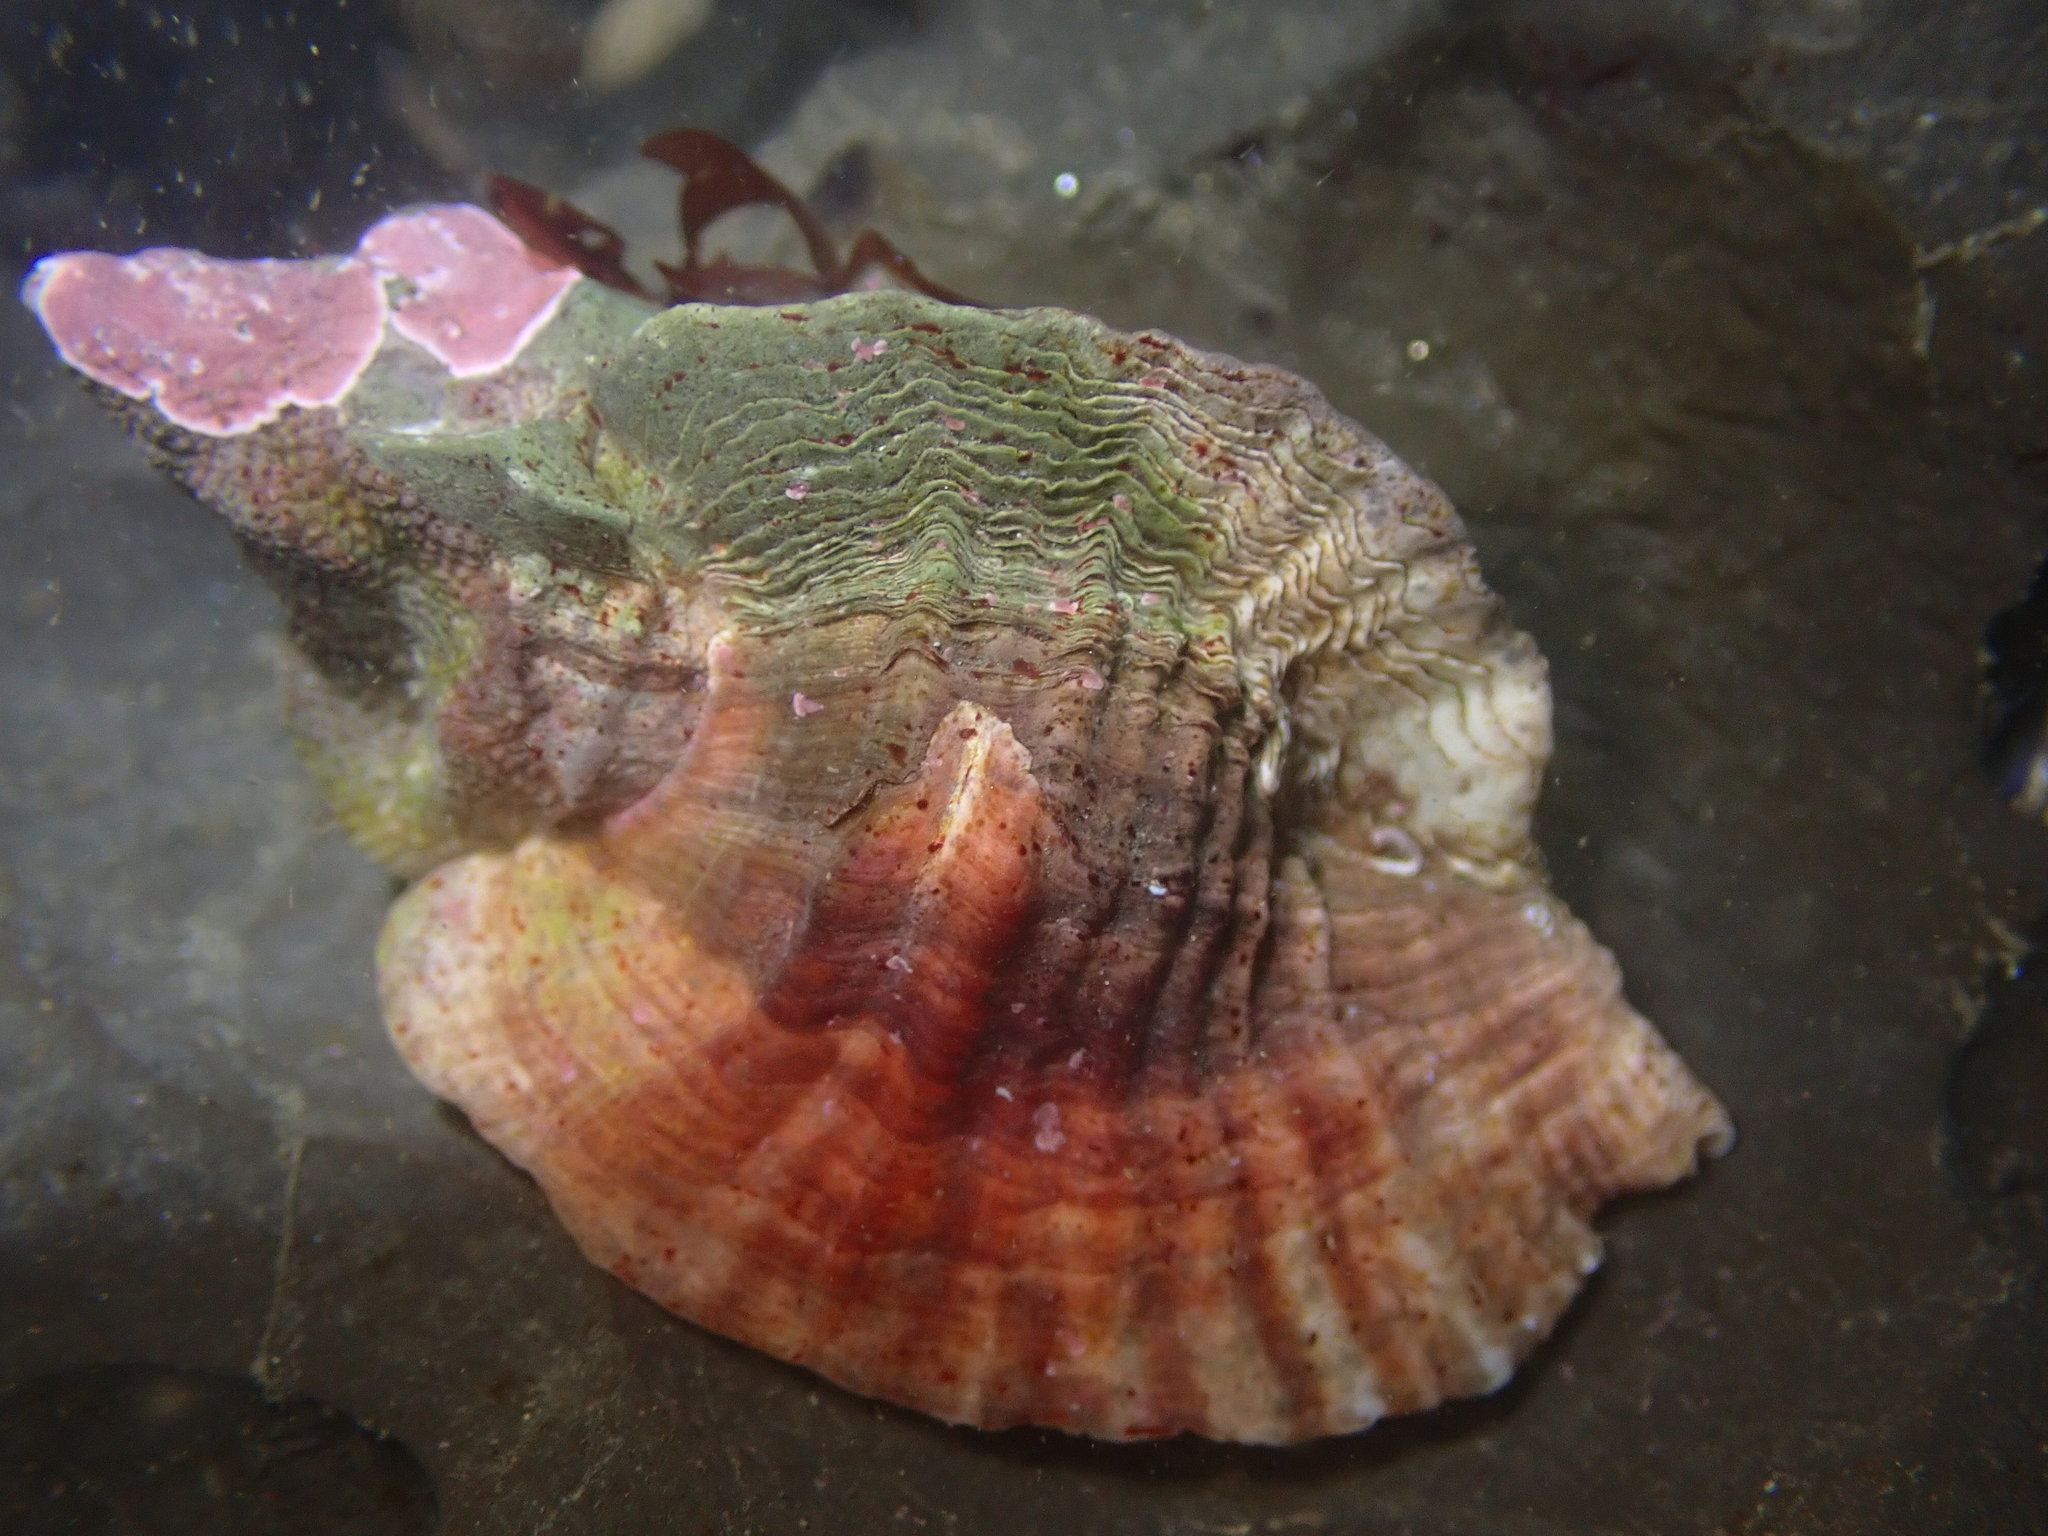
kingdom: Animalia
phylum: Mollusca
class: Gastropoda
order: Neogastropoda
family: Muricidae
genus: Ceratostoma
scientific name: Ceratostoma foliatum
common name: Foliate thorn purpura
